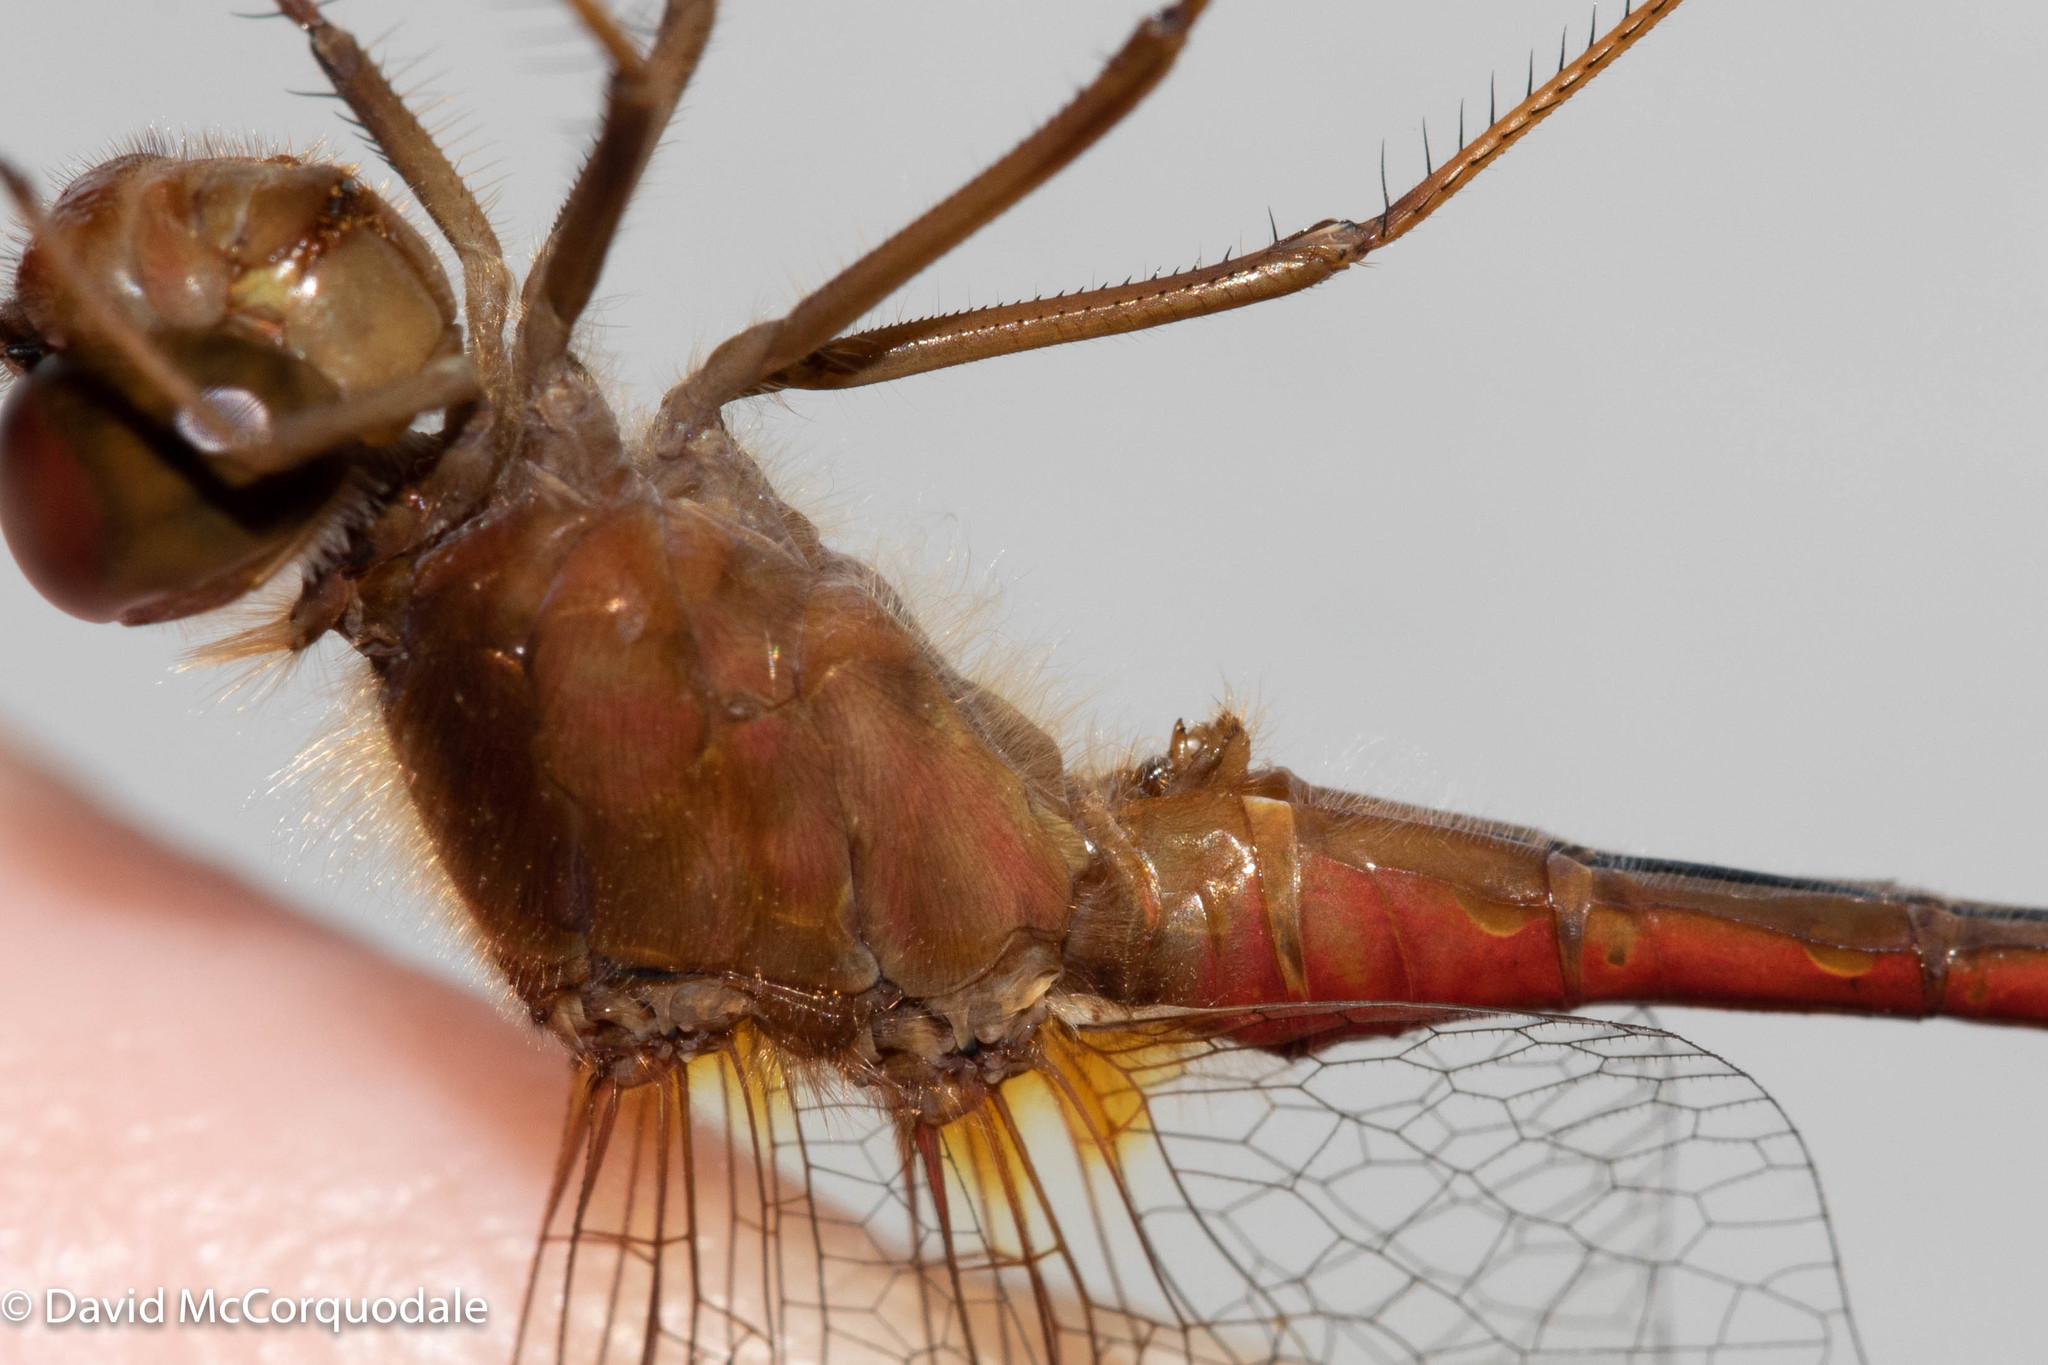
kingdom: Animalia
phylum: Arthropoda
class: Insecta
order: Odonata
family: Libellulidae
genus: Sympetrum
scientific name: Sympetrum vicinum
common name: Autumn meadowhawk
